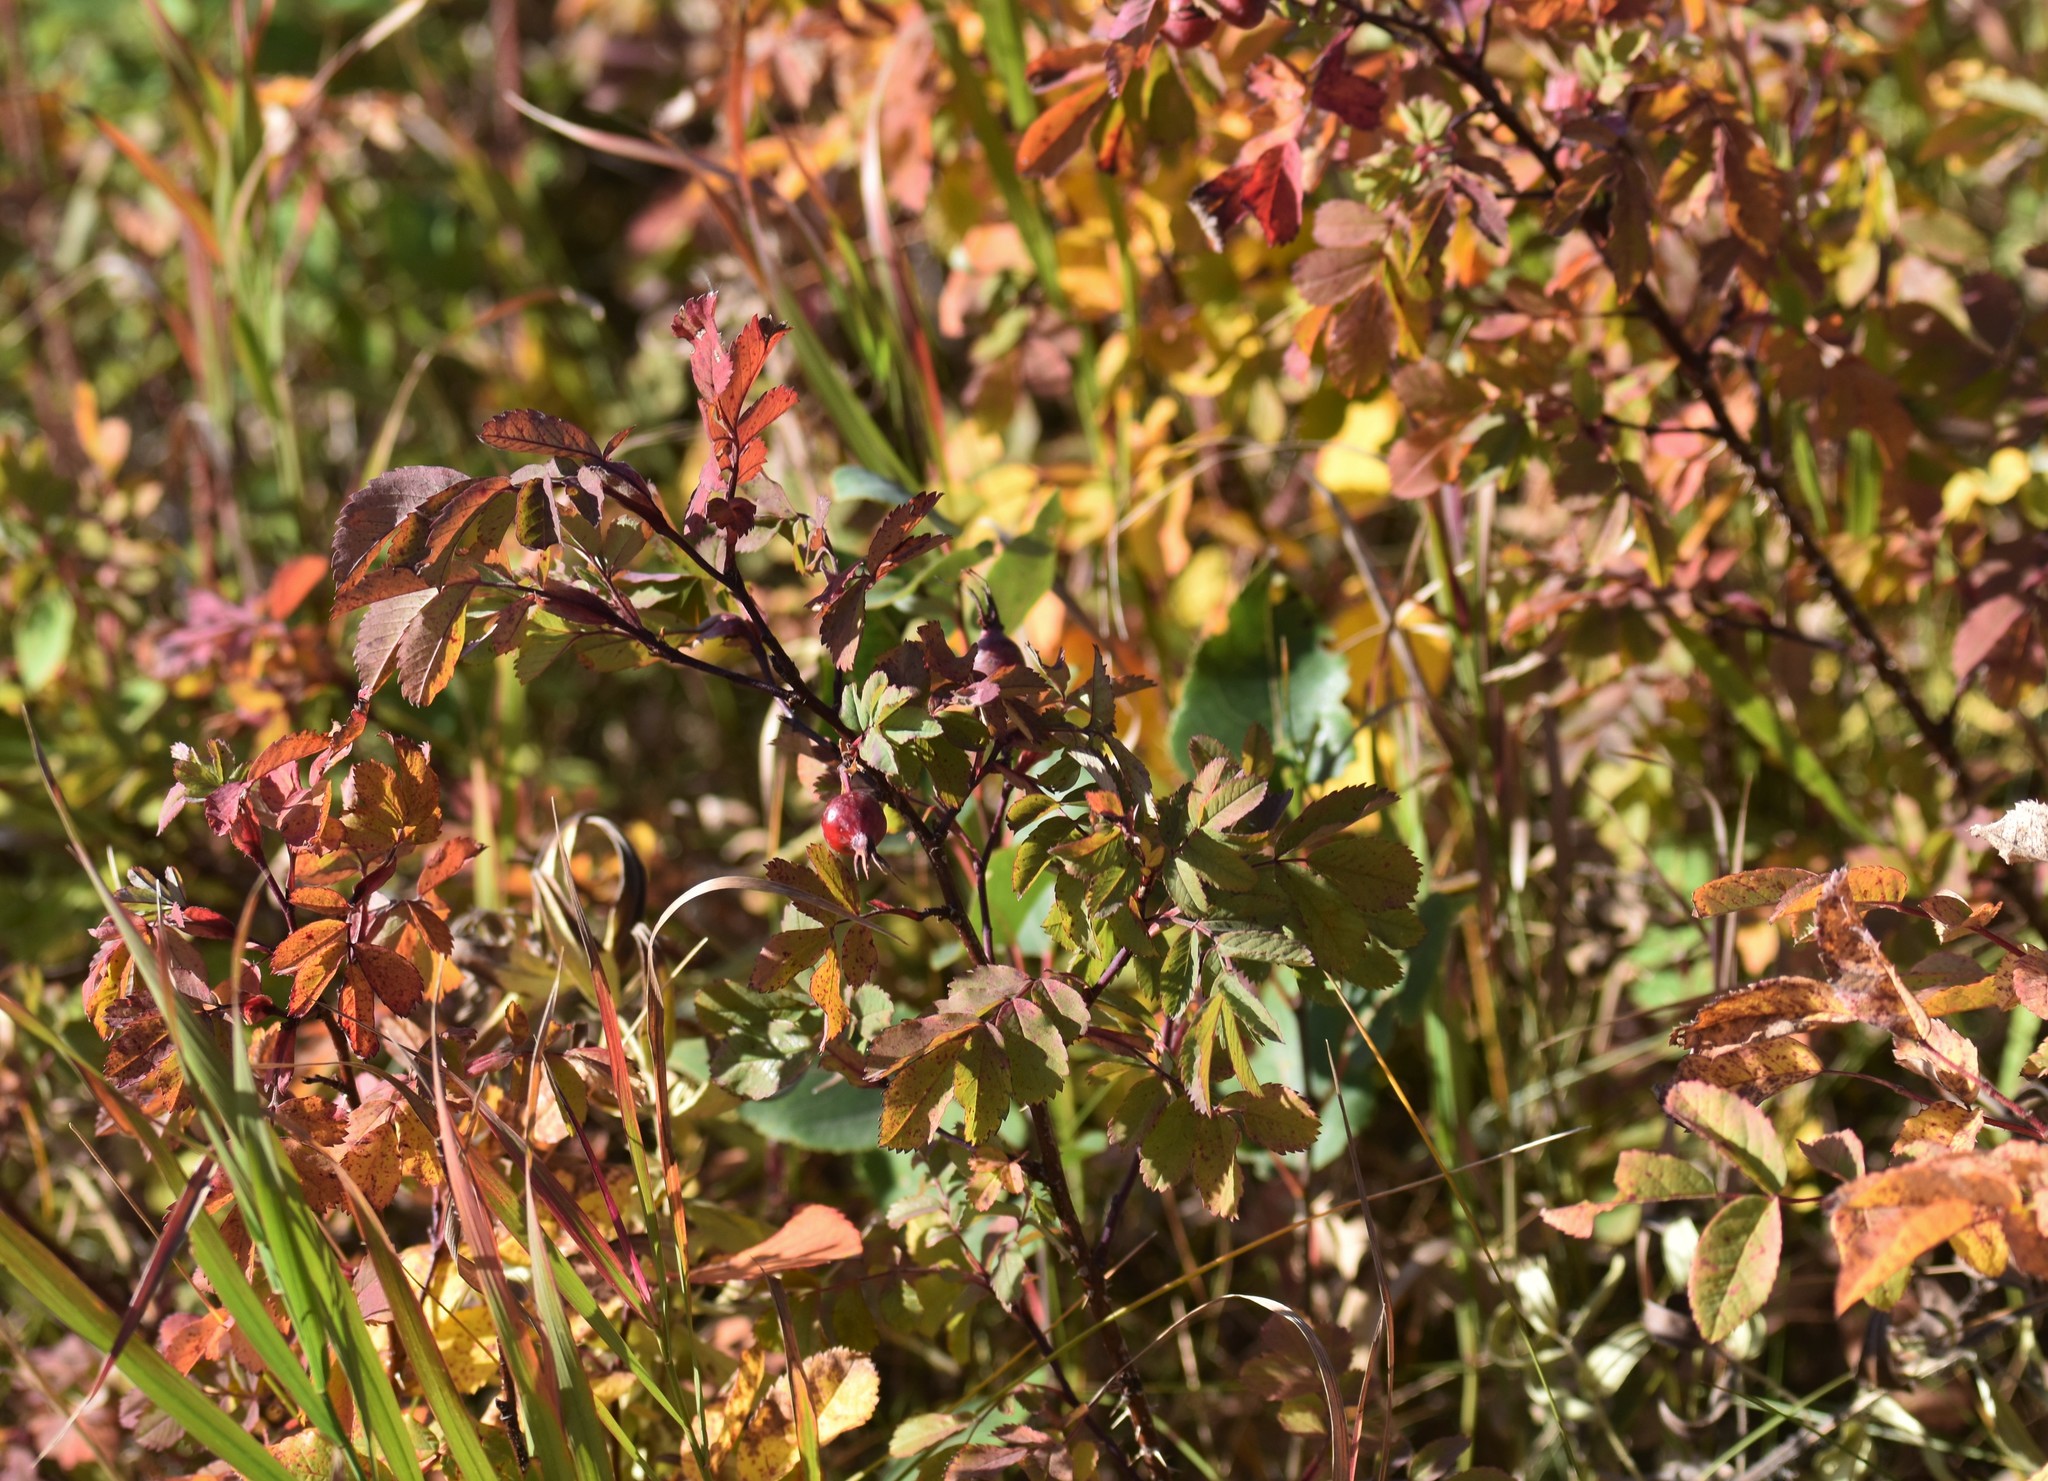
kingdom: Plantae
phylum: Tracheophyta
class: Magnoliopsida
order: Rosales
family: Rosaceae
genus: Rosa
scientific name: Rosa woodsii
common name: Woods's rose
